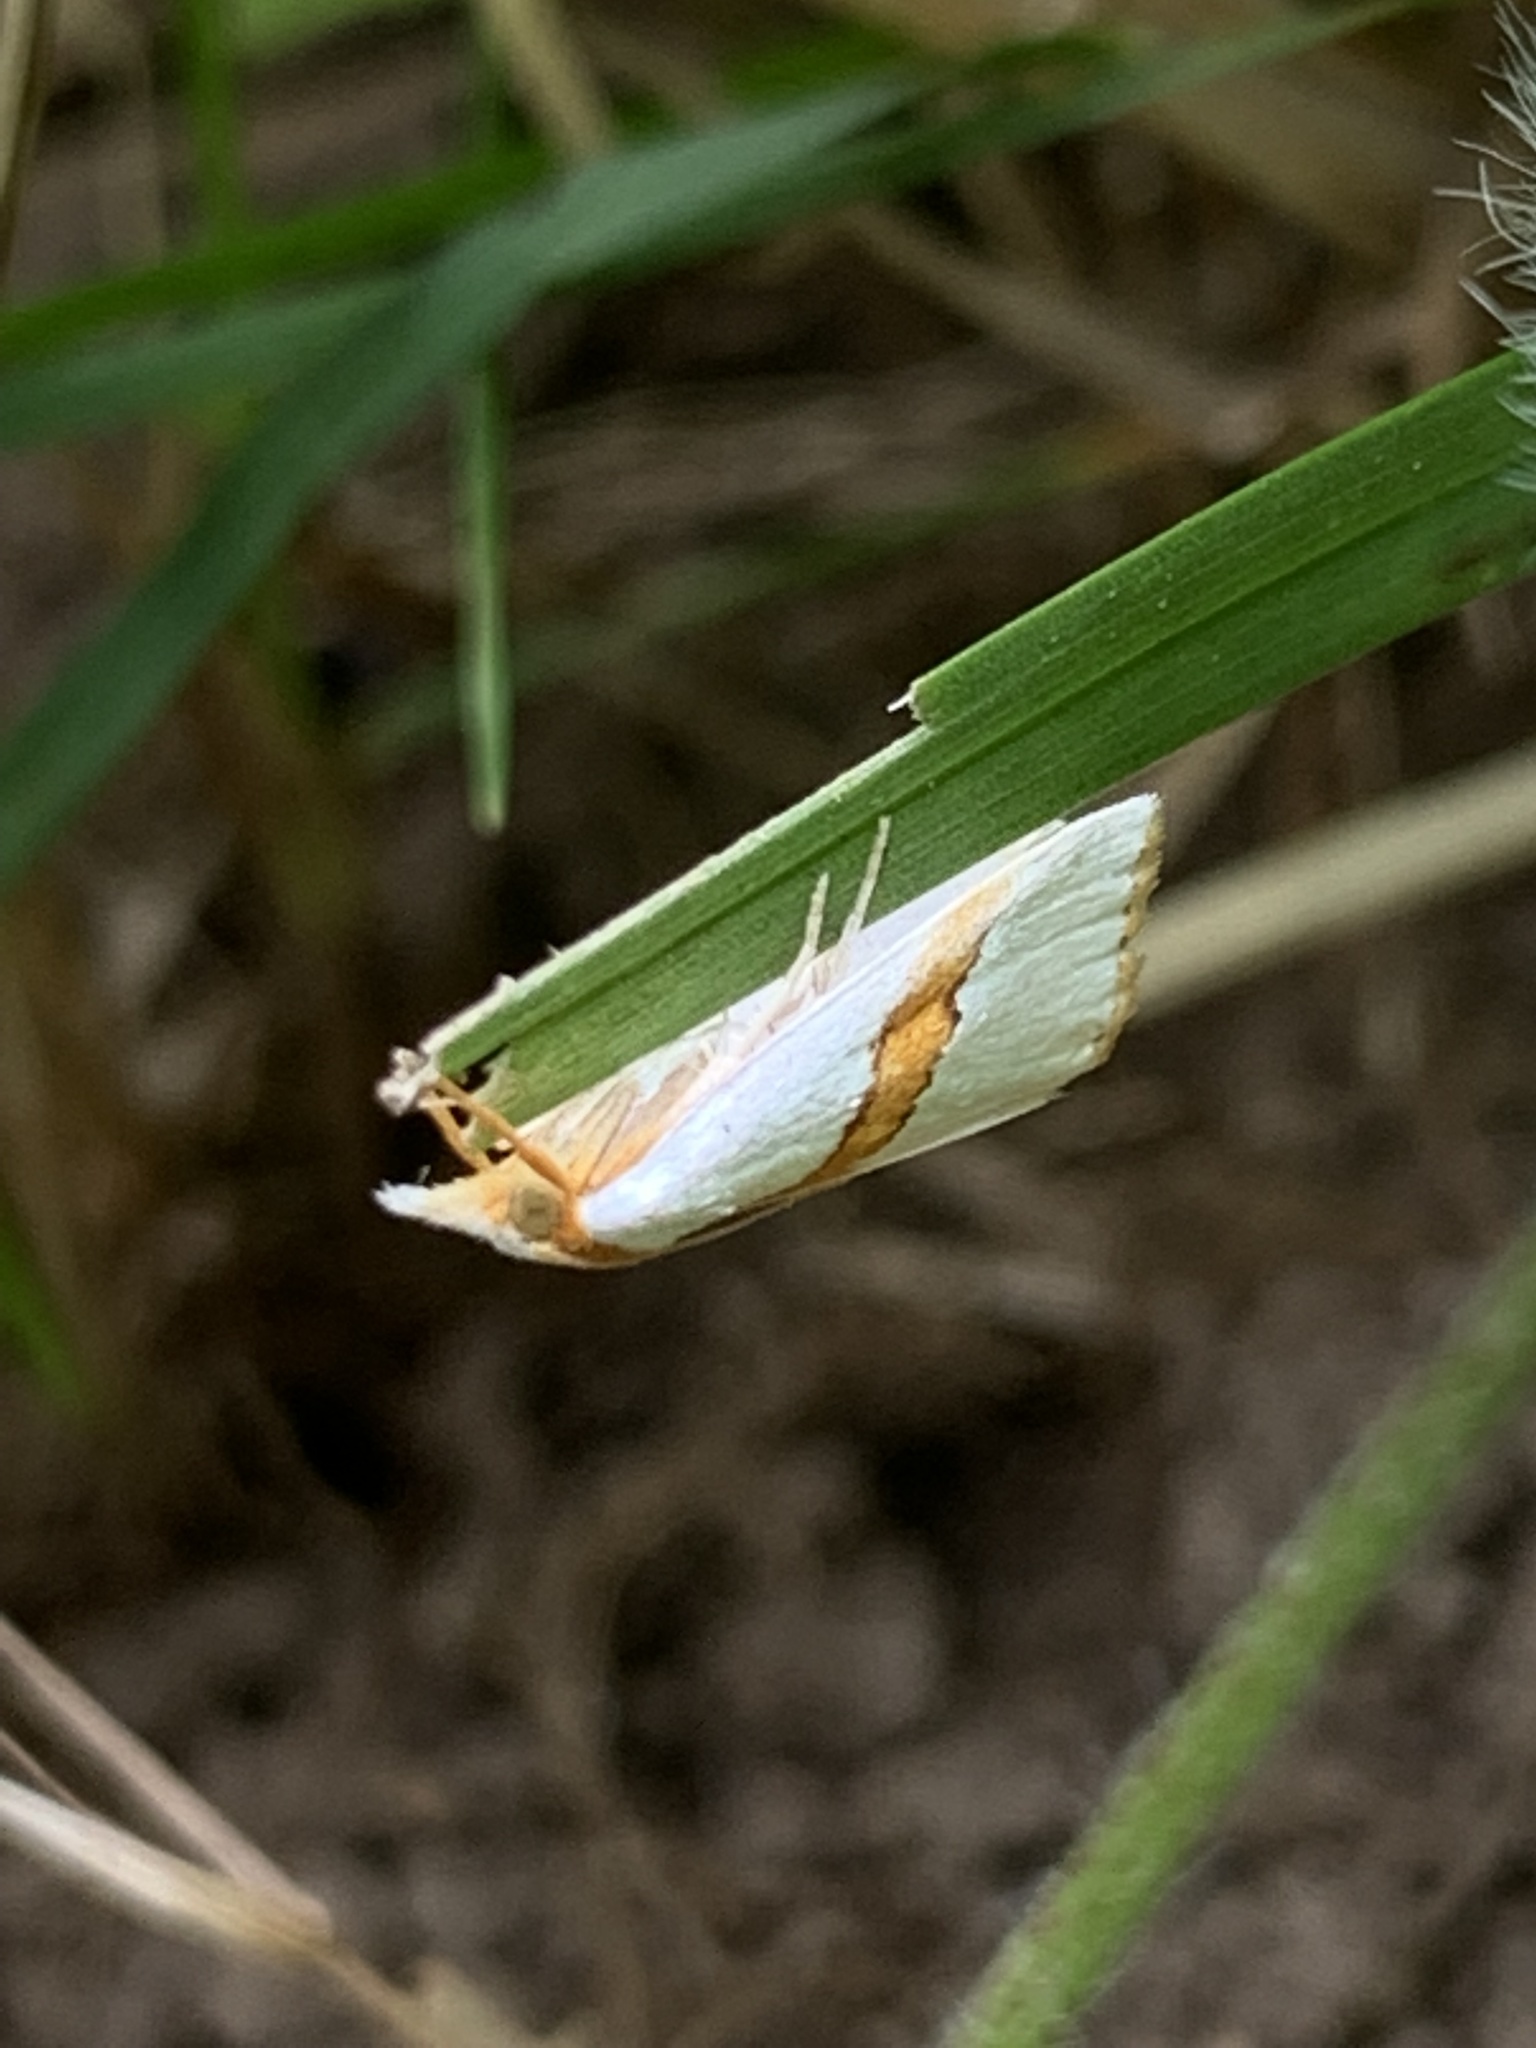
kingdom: Animalia
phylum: Arthropoda
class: Insecta
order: Lepidoptera
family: Crambidae
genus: Vaxi
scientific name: Vaxi critica
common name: Straight-lined vaxi moth
